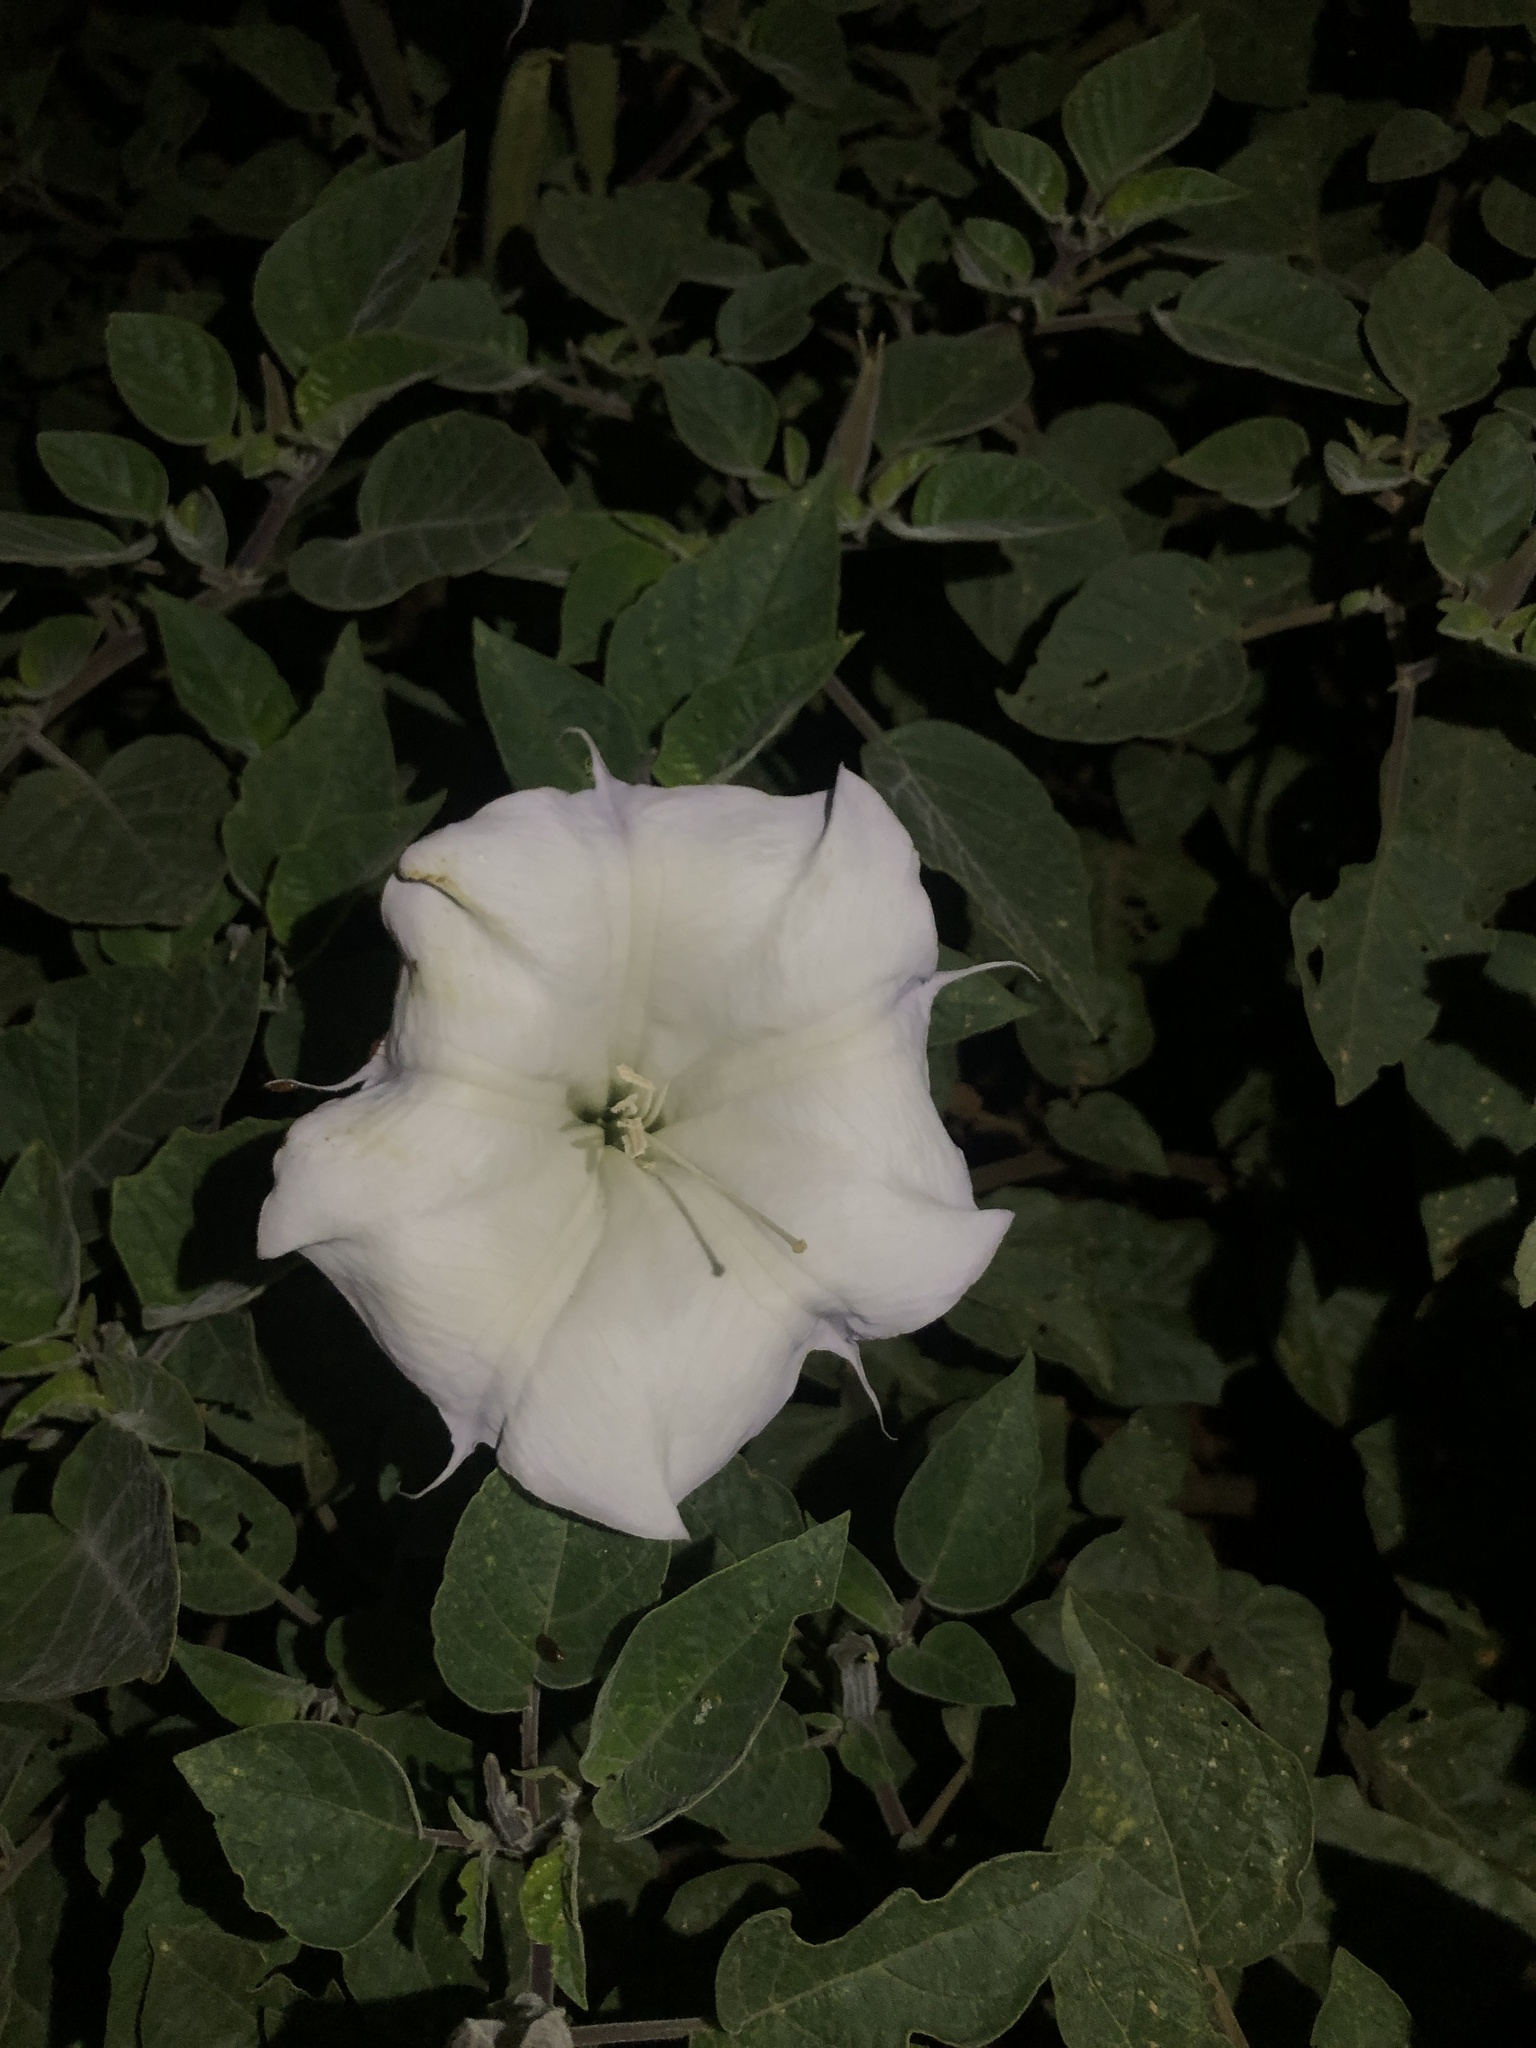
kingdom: Plantae
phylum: Tracheophyta
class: Magnoliopsida
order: Solanales
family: Solanaceae
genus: Datura
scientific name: Datura wrightii
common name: Sacred thorn-apple
